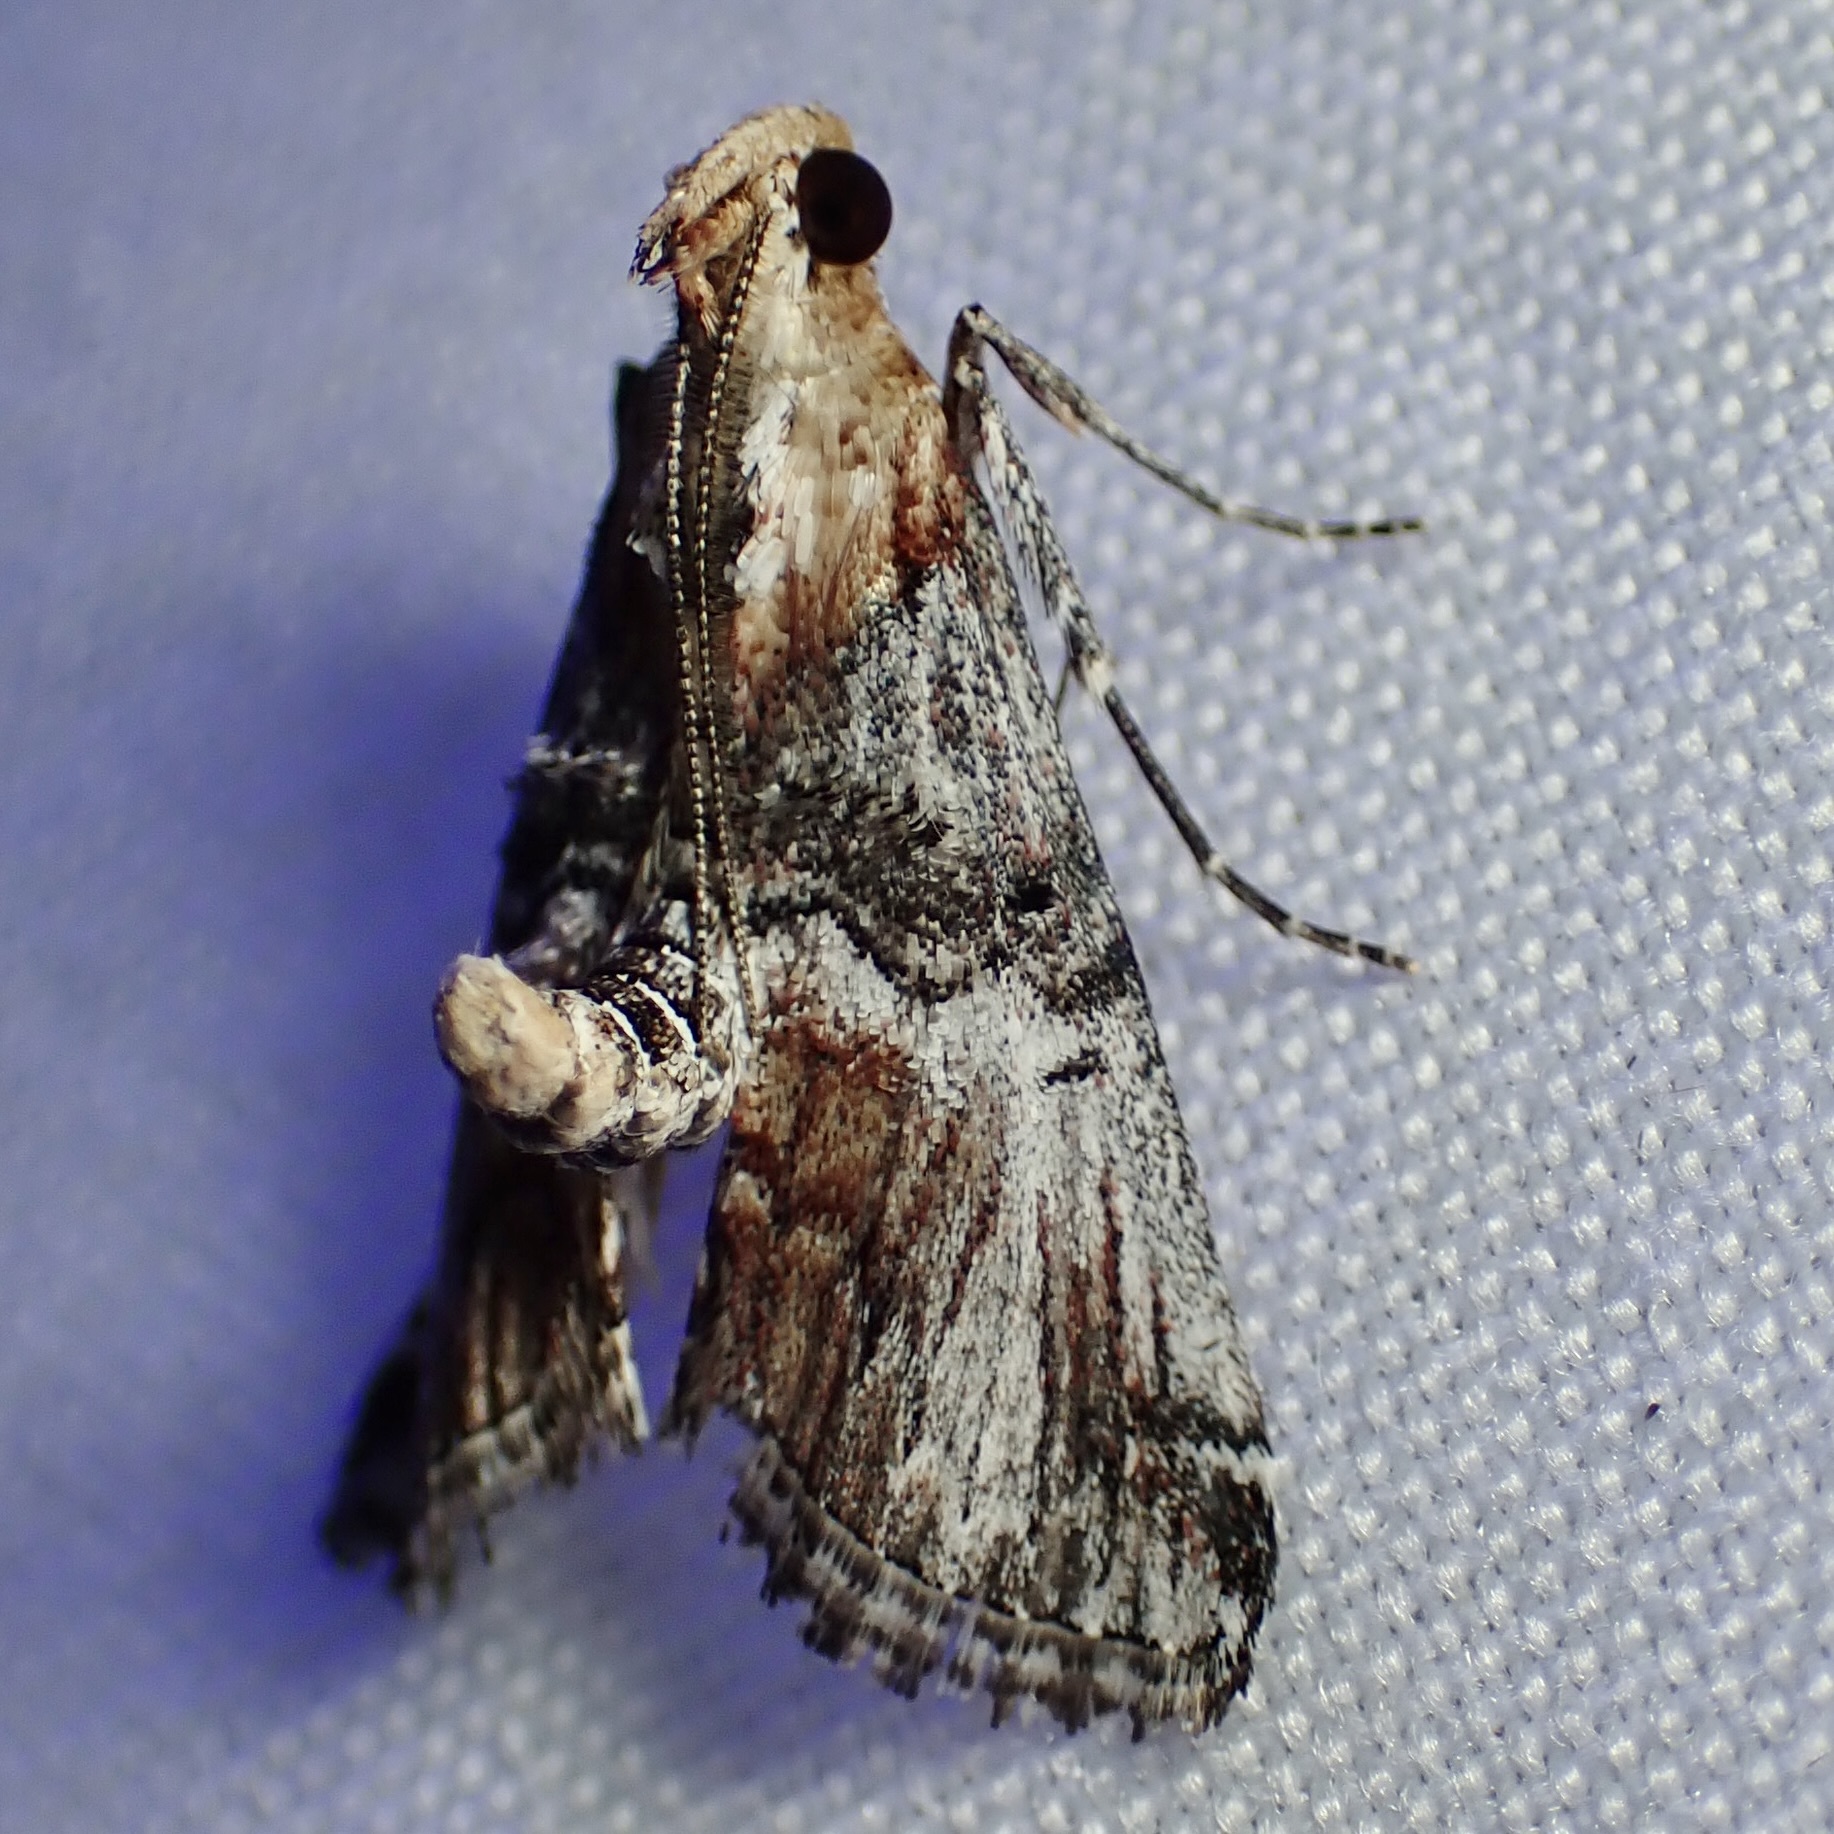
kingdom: Animalia
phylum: Arthropoda
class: Insecta
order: Lepidoptera
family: Pyralidae
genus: Toripalpus
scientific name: Toripalpus trabalis
